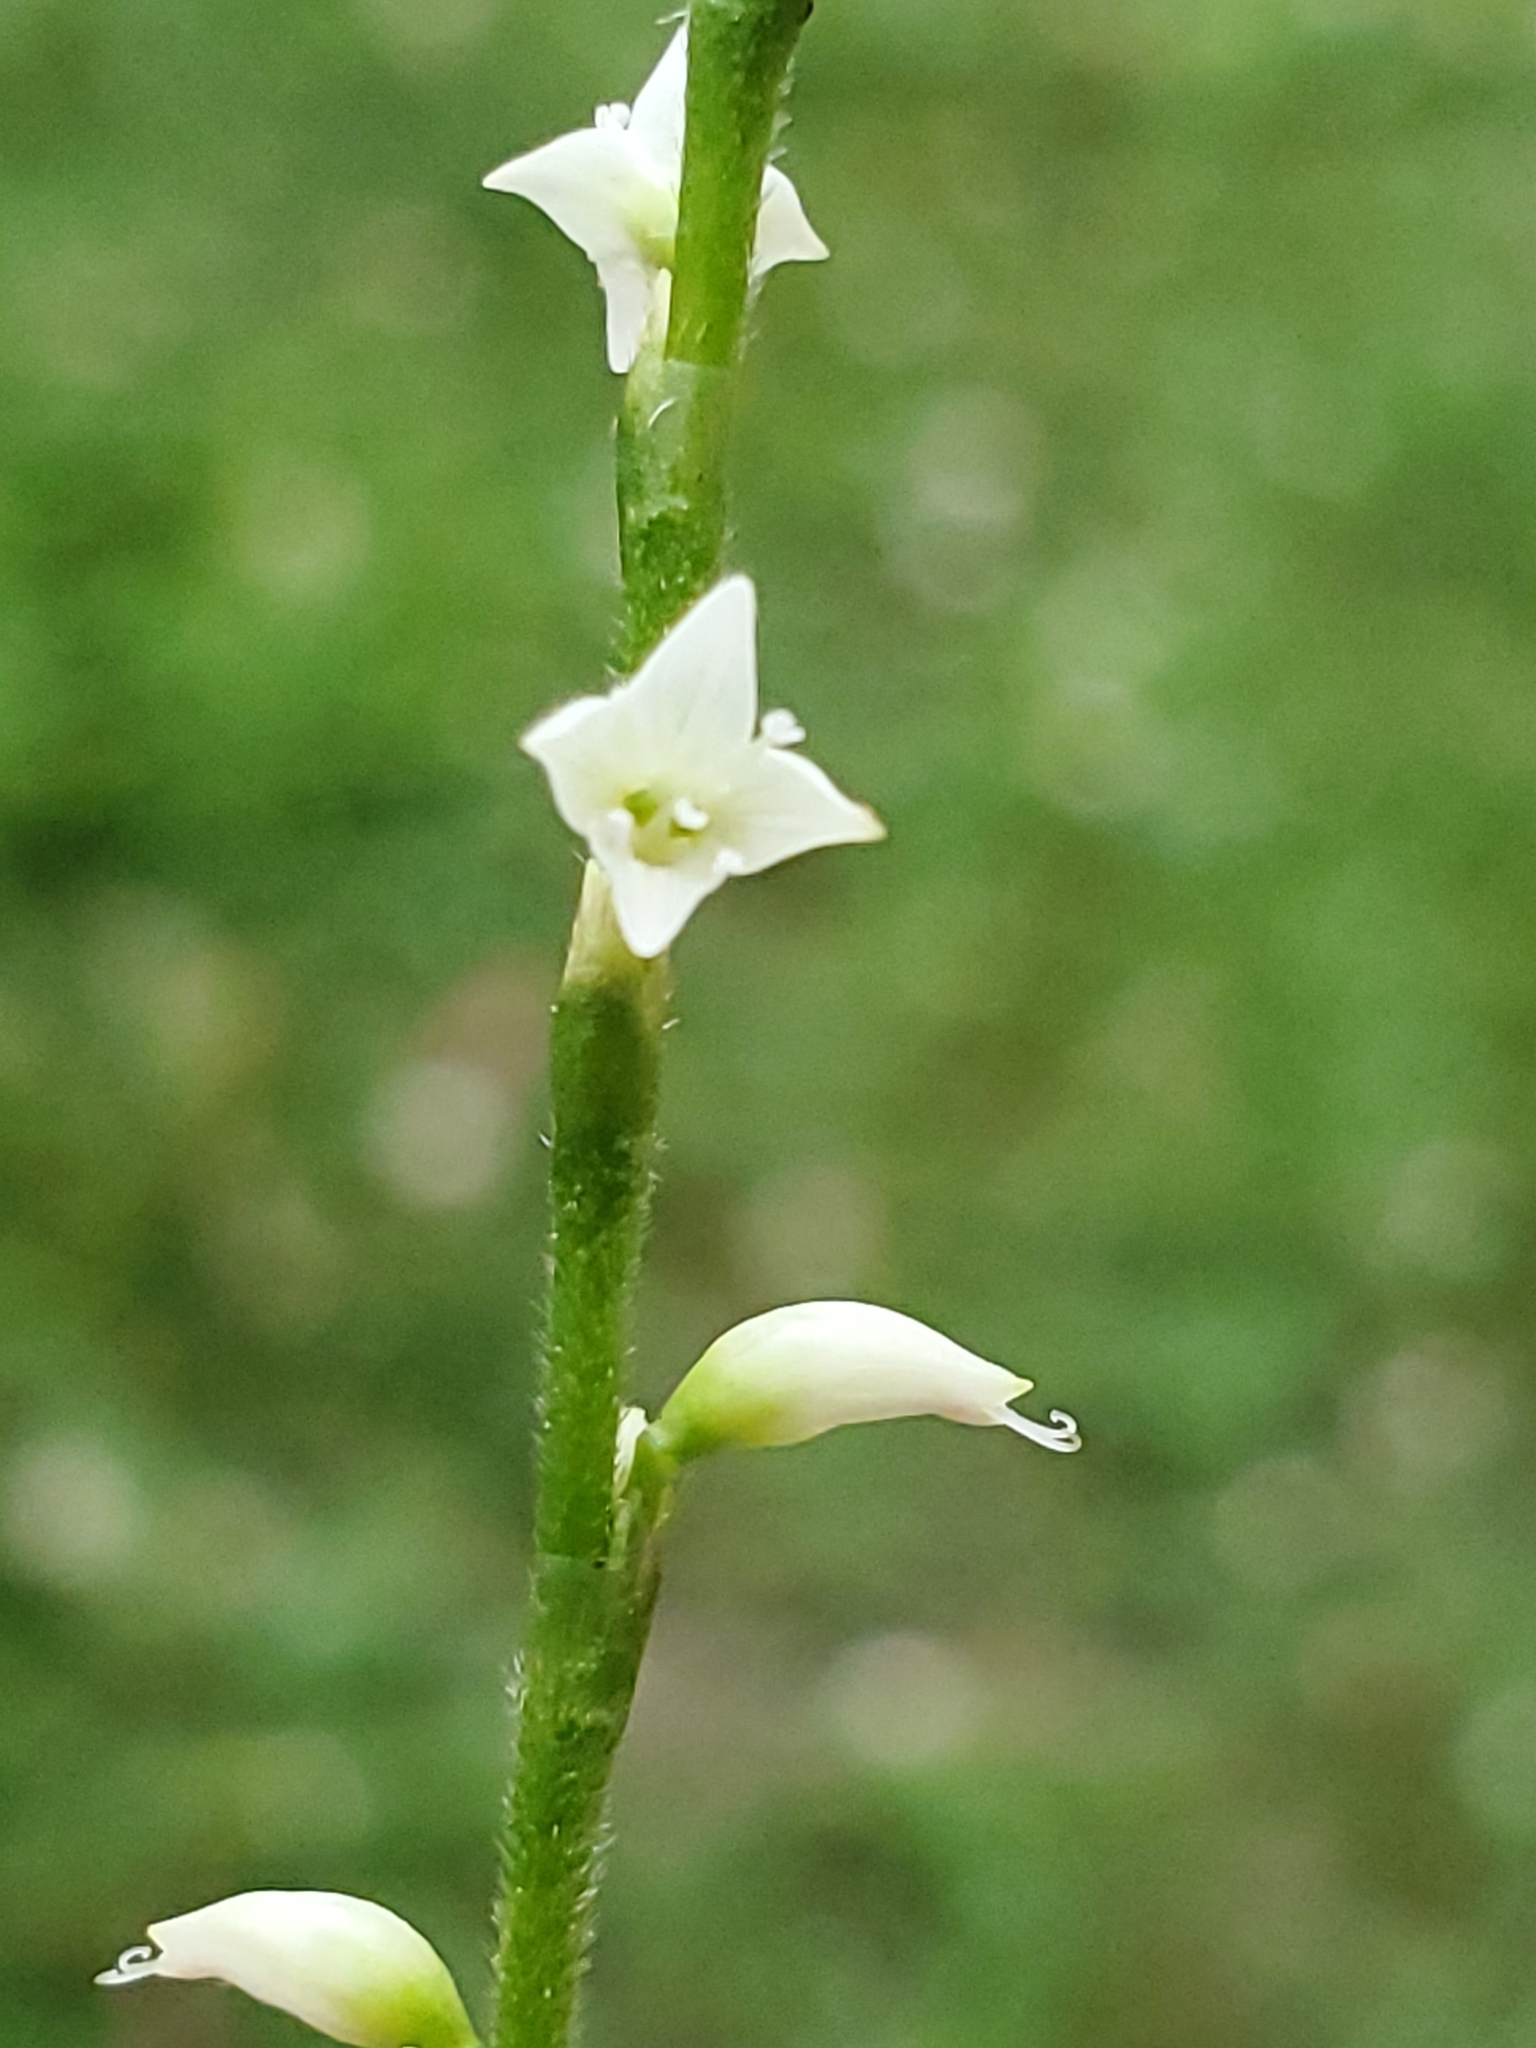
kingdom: Plantae
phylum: Tracheophyta
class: Magnoliopsida
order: Caryophyllales
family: Polygonaceae
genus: Persicaria
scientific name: Persicaria virginiana
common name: Jumpseed
